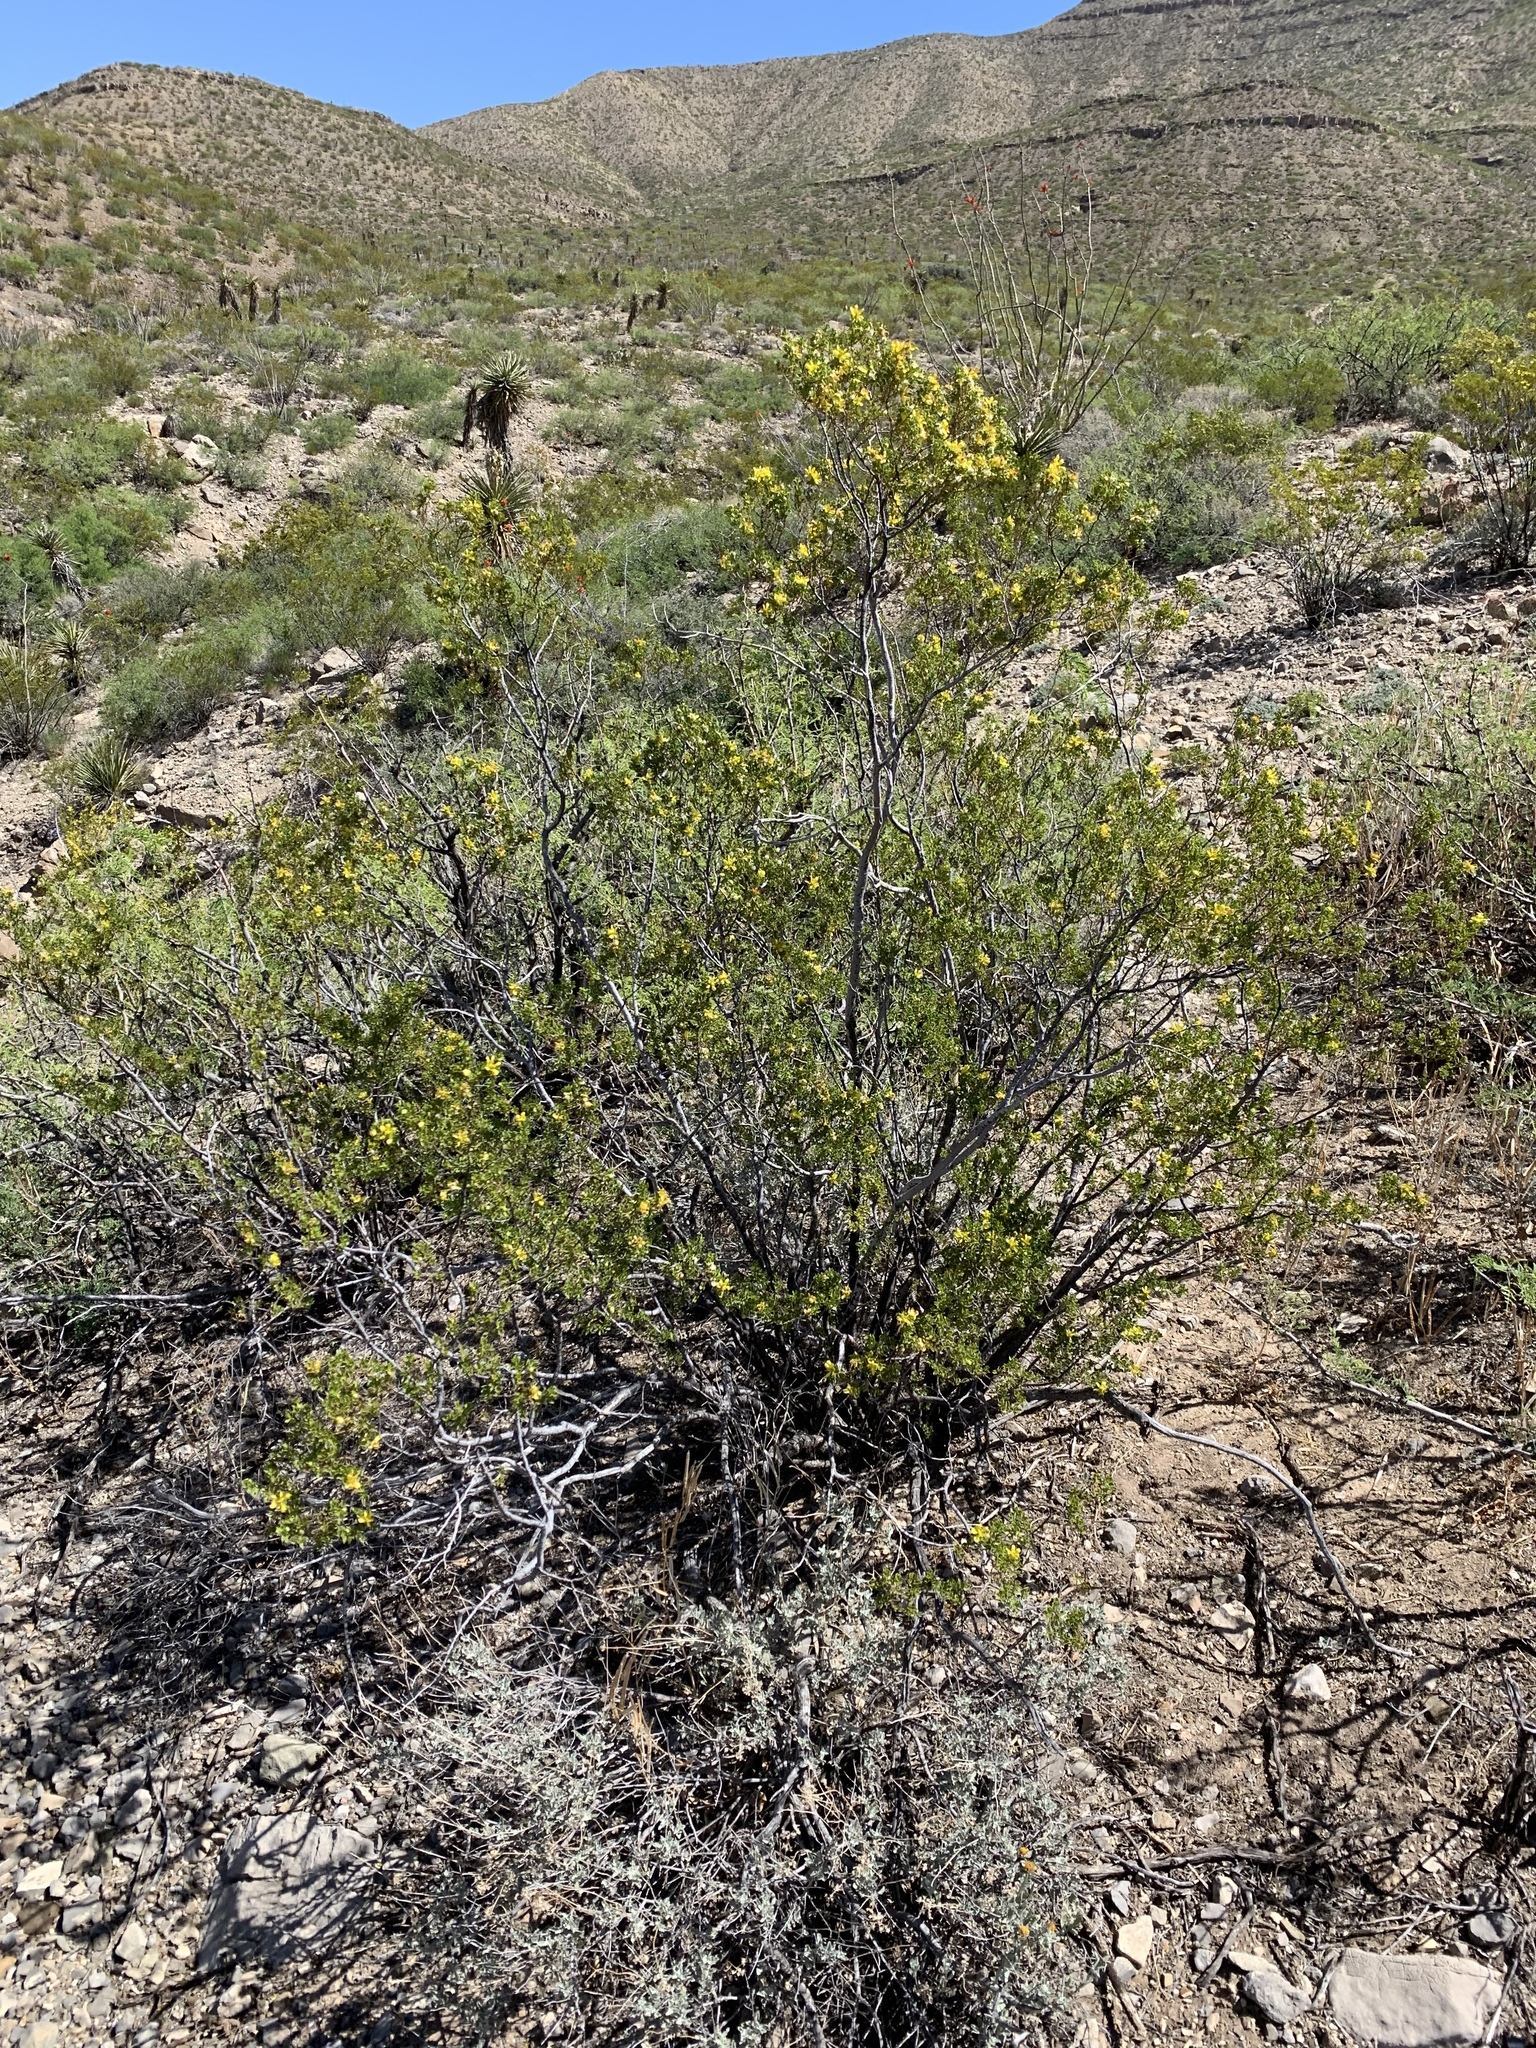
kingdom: Plantae
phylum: Tracheophyta
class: Magnoliopsida
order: Zygophyllales
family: Zygophyllaceae
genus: Larrea
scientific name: Larrea tridentata
